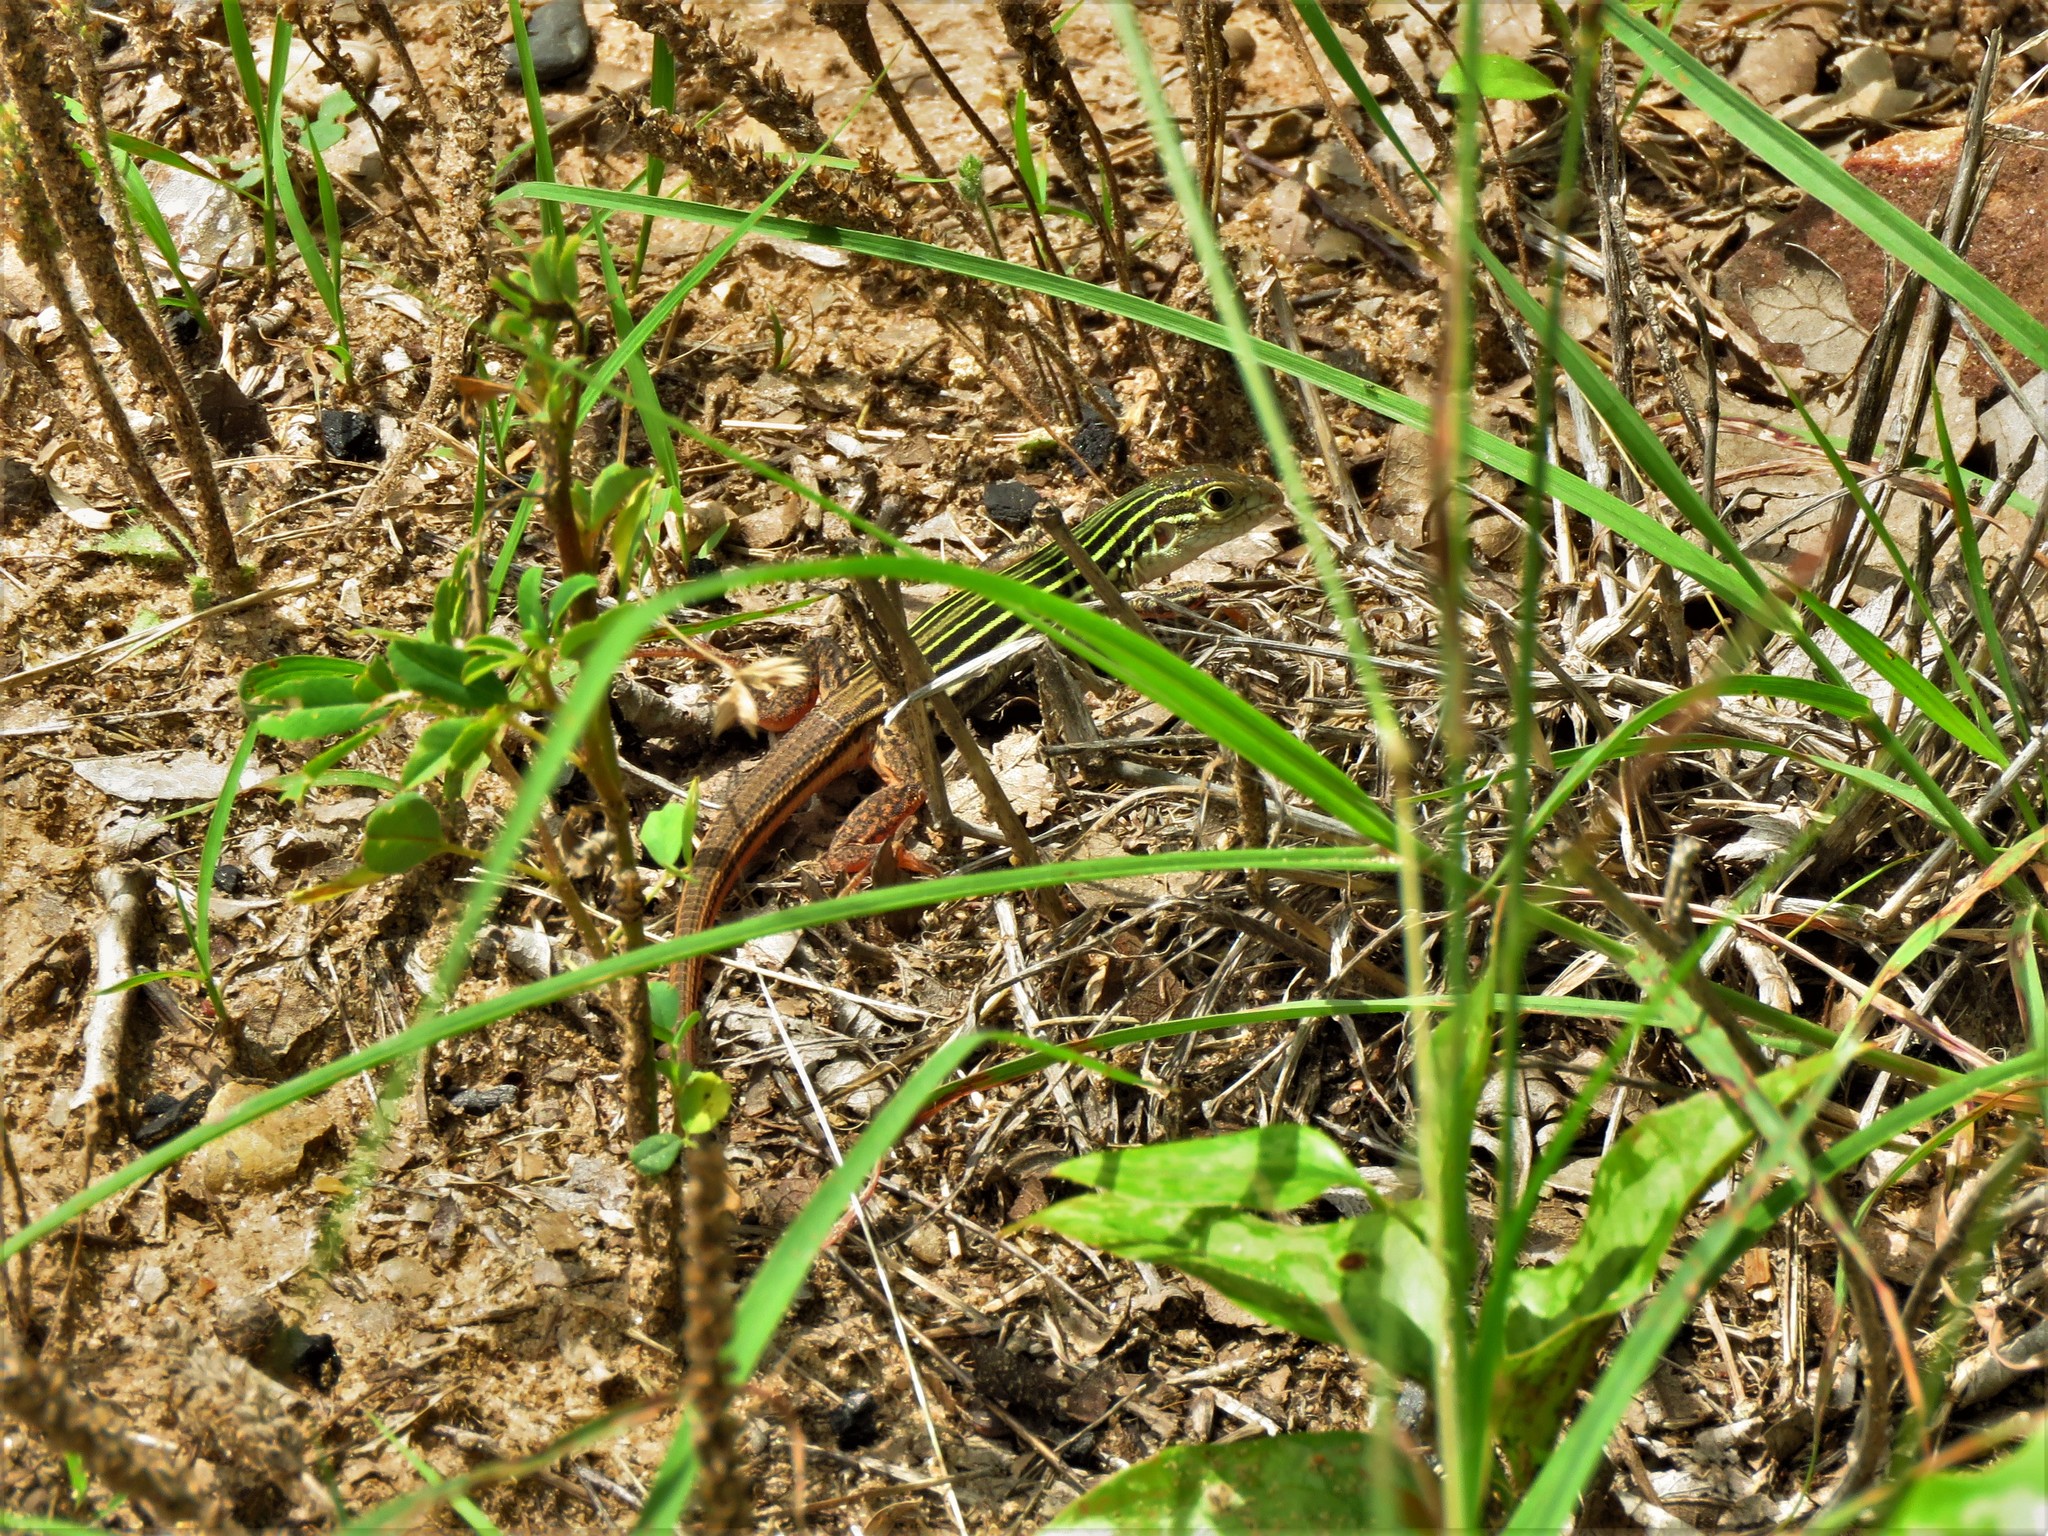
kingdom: Animalia
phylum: Chordata
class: Squamata
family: Teiidae
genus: Aspidoscelis
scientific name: Aspidoscelis gularis
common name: Eastern spotted whiptail
